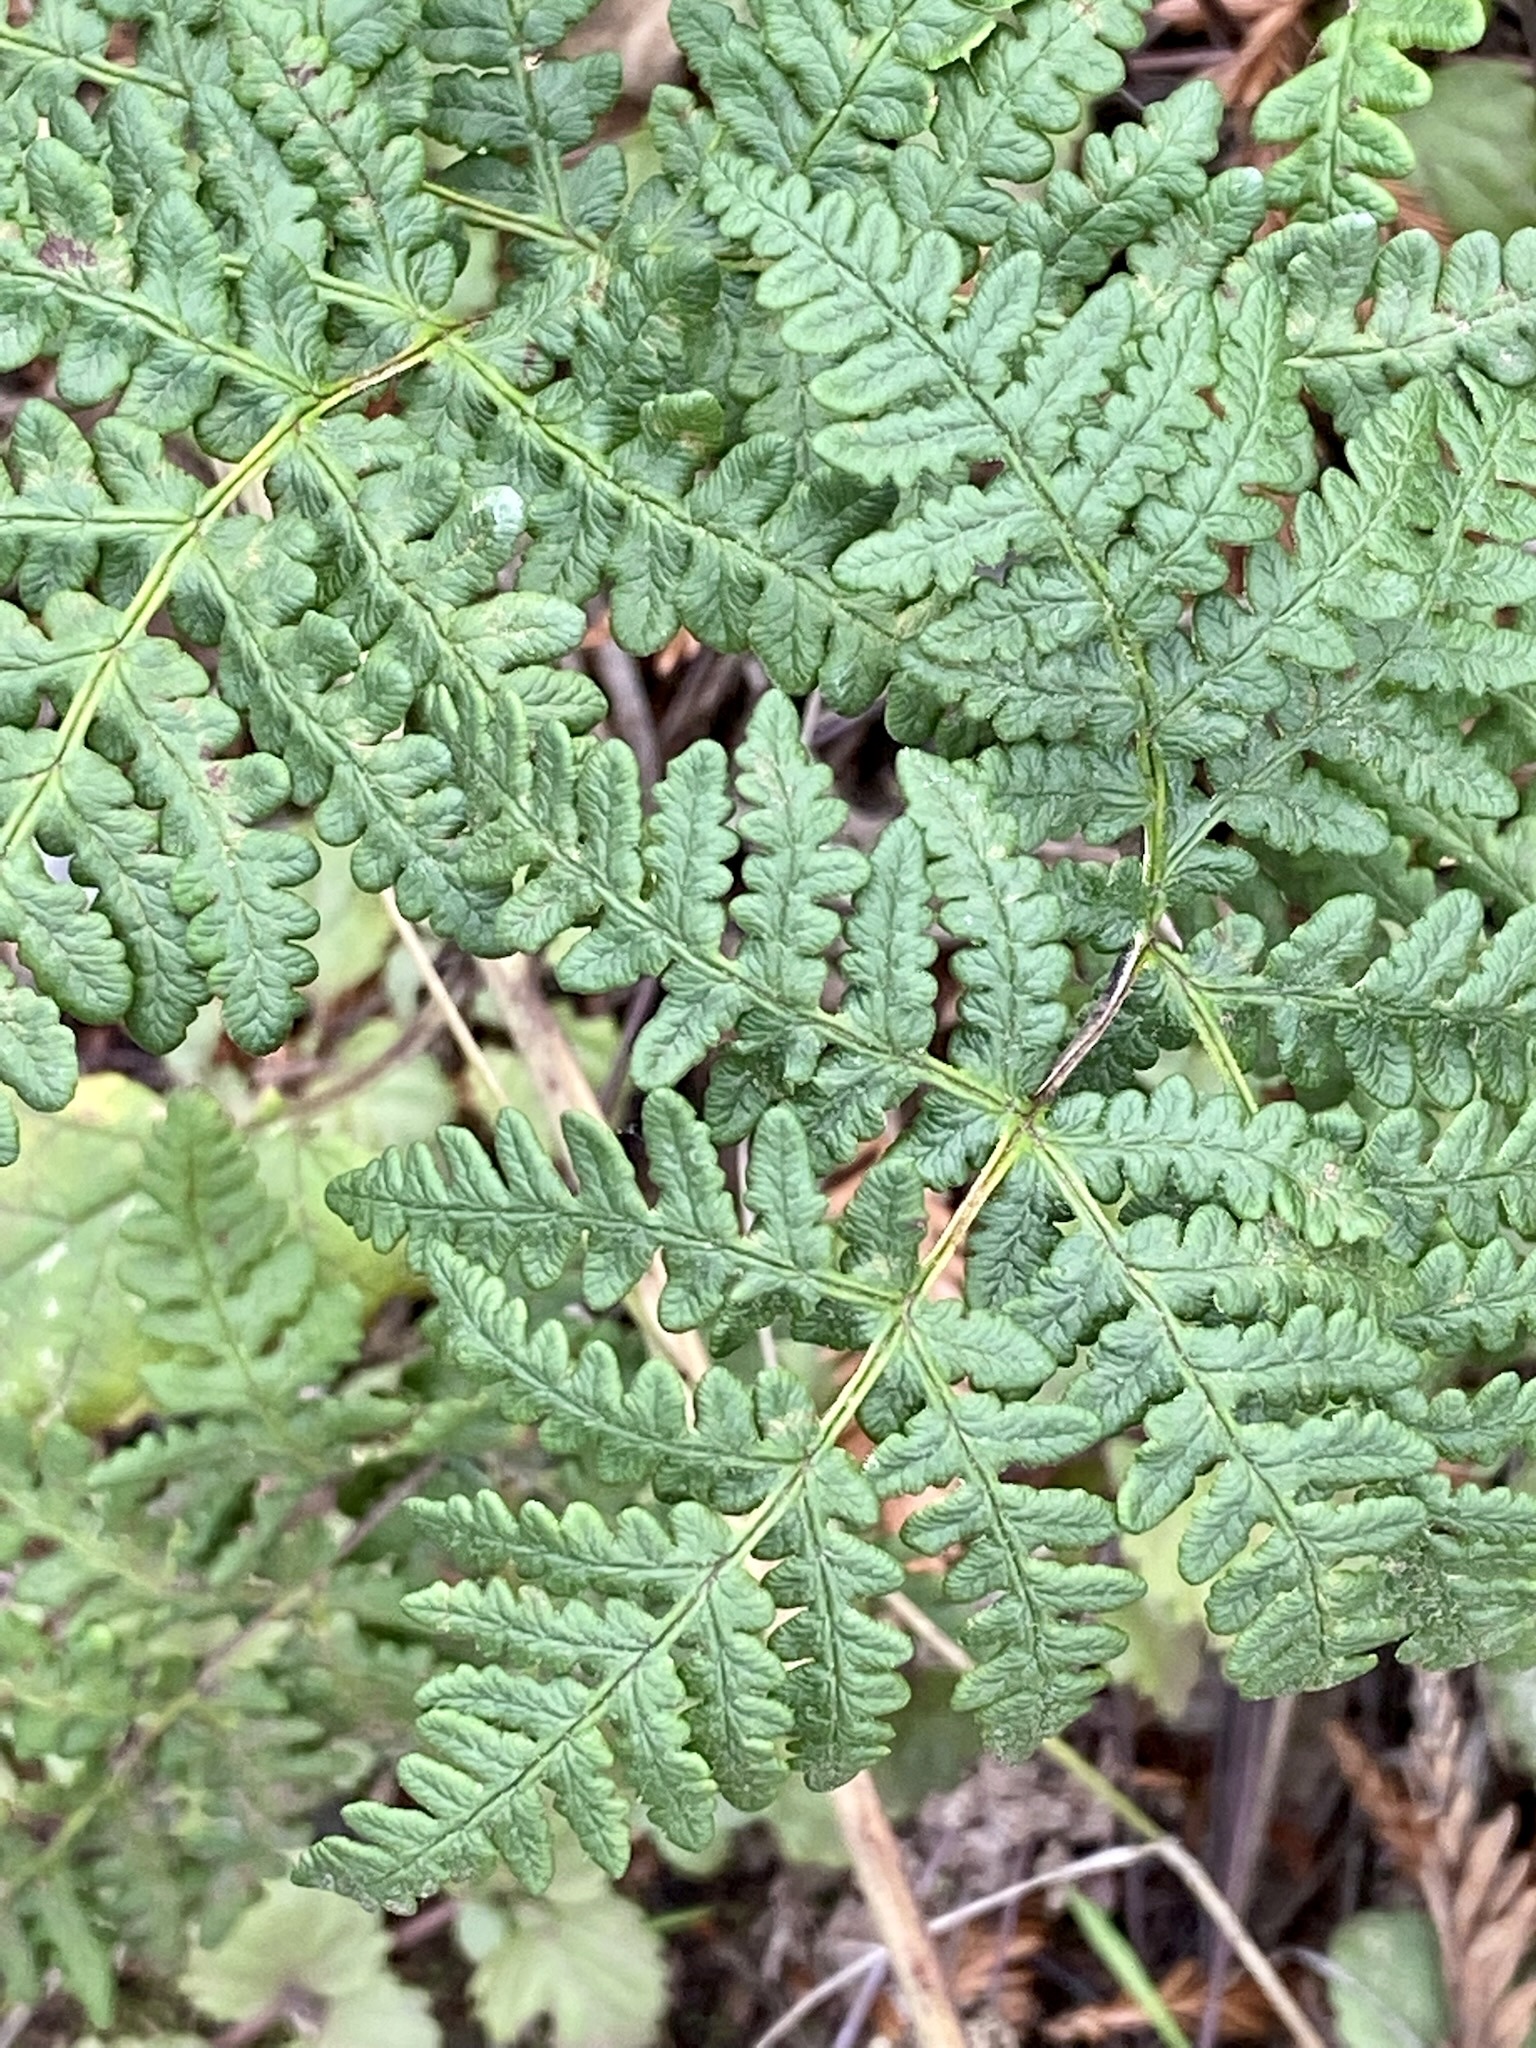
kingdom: Plantae
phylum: Tracheophyta
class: Polypodiopsida
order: Polypodiales
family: Pteridaceae
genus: Pentagramma
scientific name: Pentagramma triangularis
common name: Gold fern
